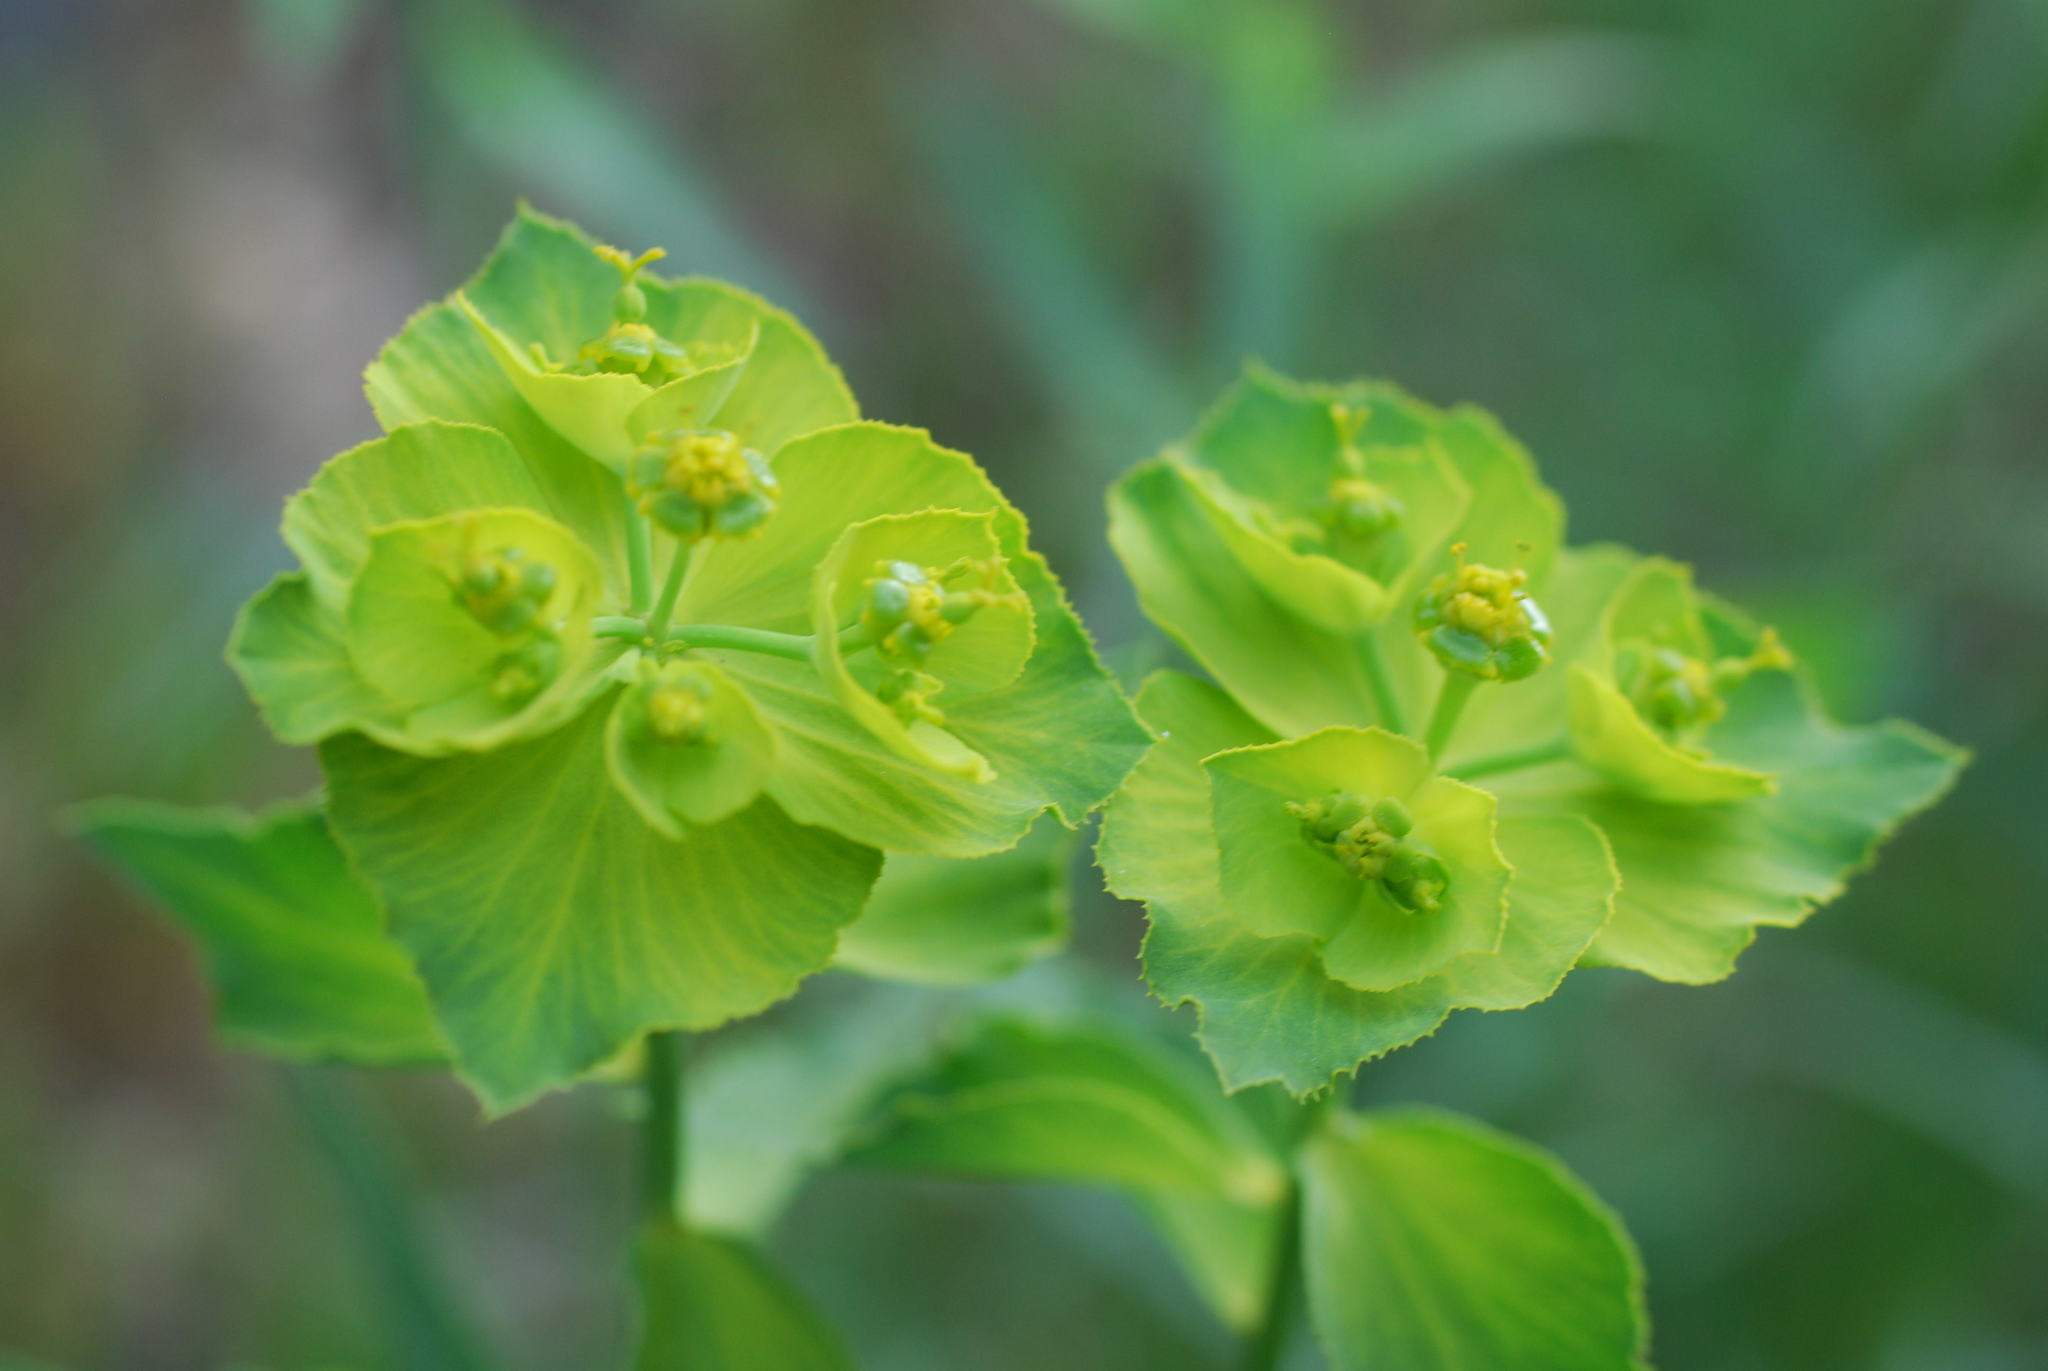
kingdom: Plantae
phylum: Tracheophyta
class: Magnoliopsida
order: Malpighiales
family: Euphorbiaceae
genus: Euphorbia
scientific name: Euphorbia serrata
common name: Serrate spurge
